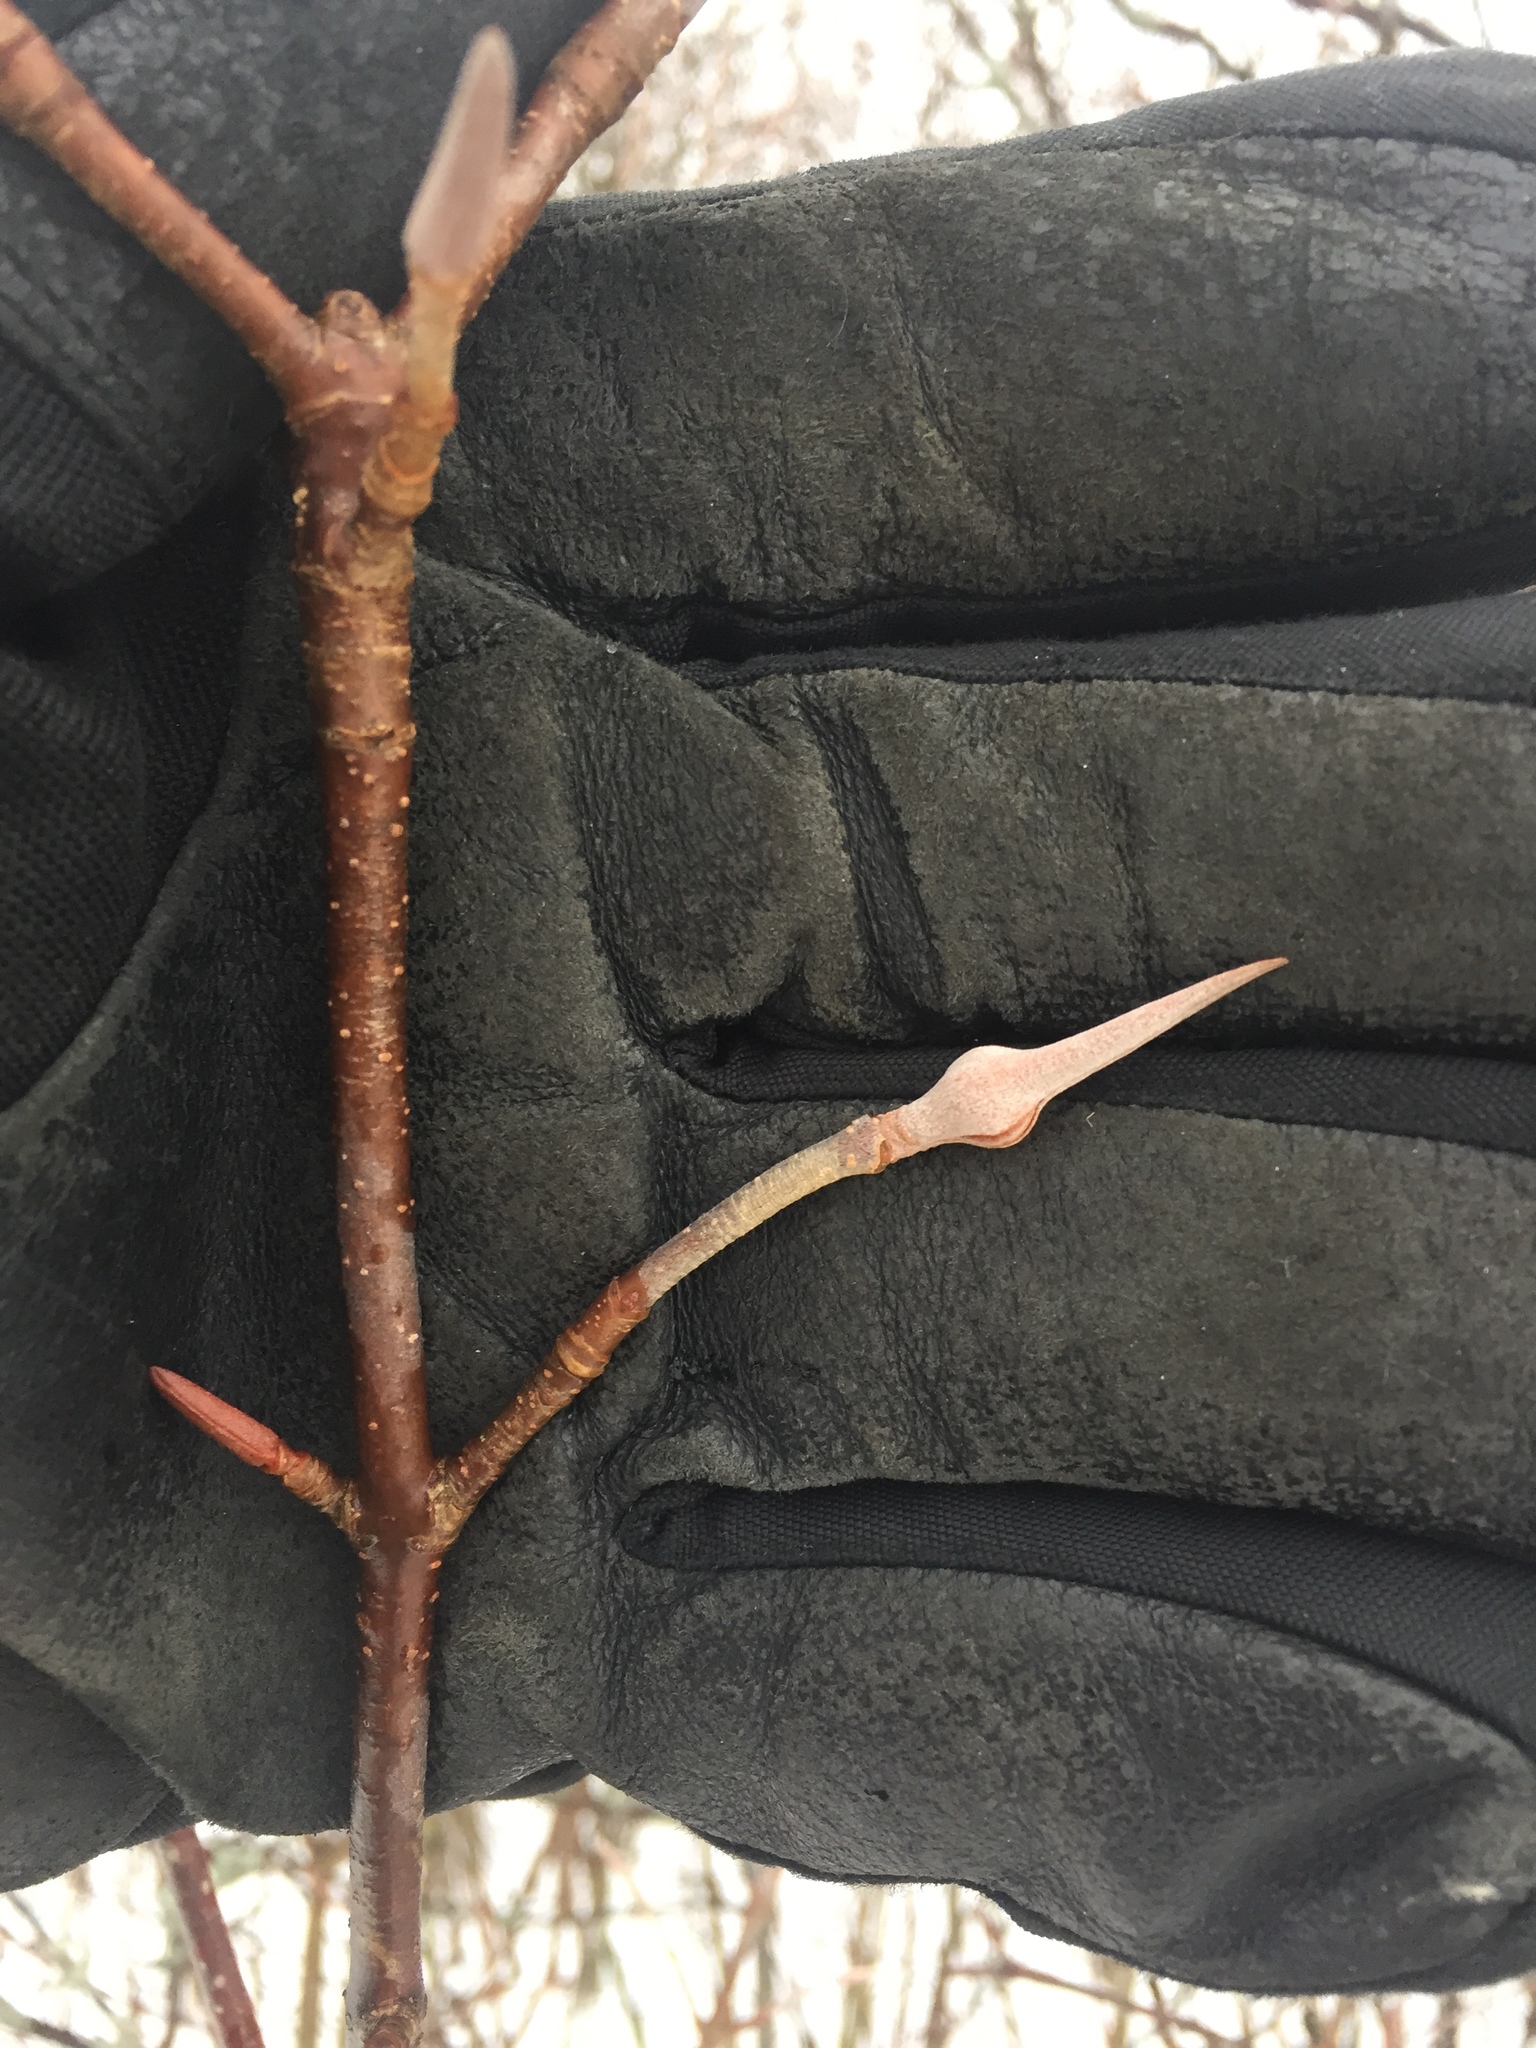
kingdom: Plantae
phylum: Tracheophyta
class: Magnoliopsida
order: Dipsacales
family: Viburnaceae
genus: Viburnum
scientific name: Viburnum lentago
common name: Black haw
